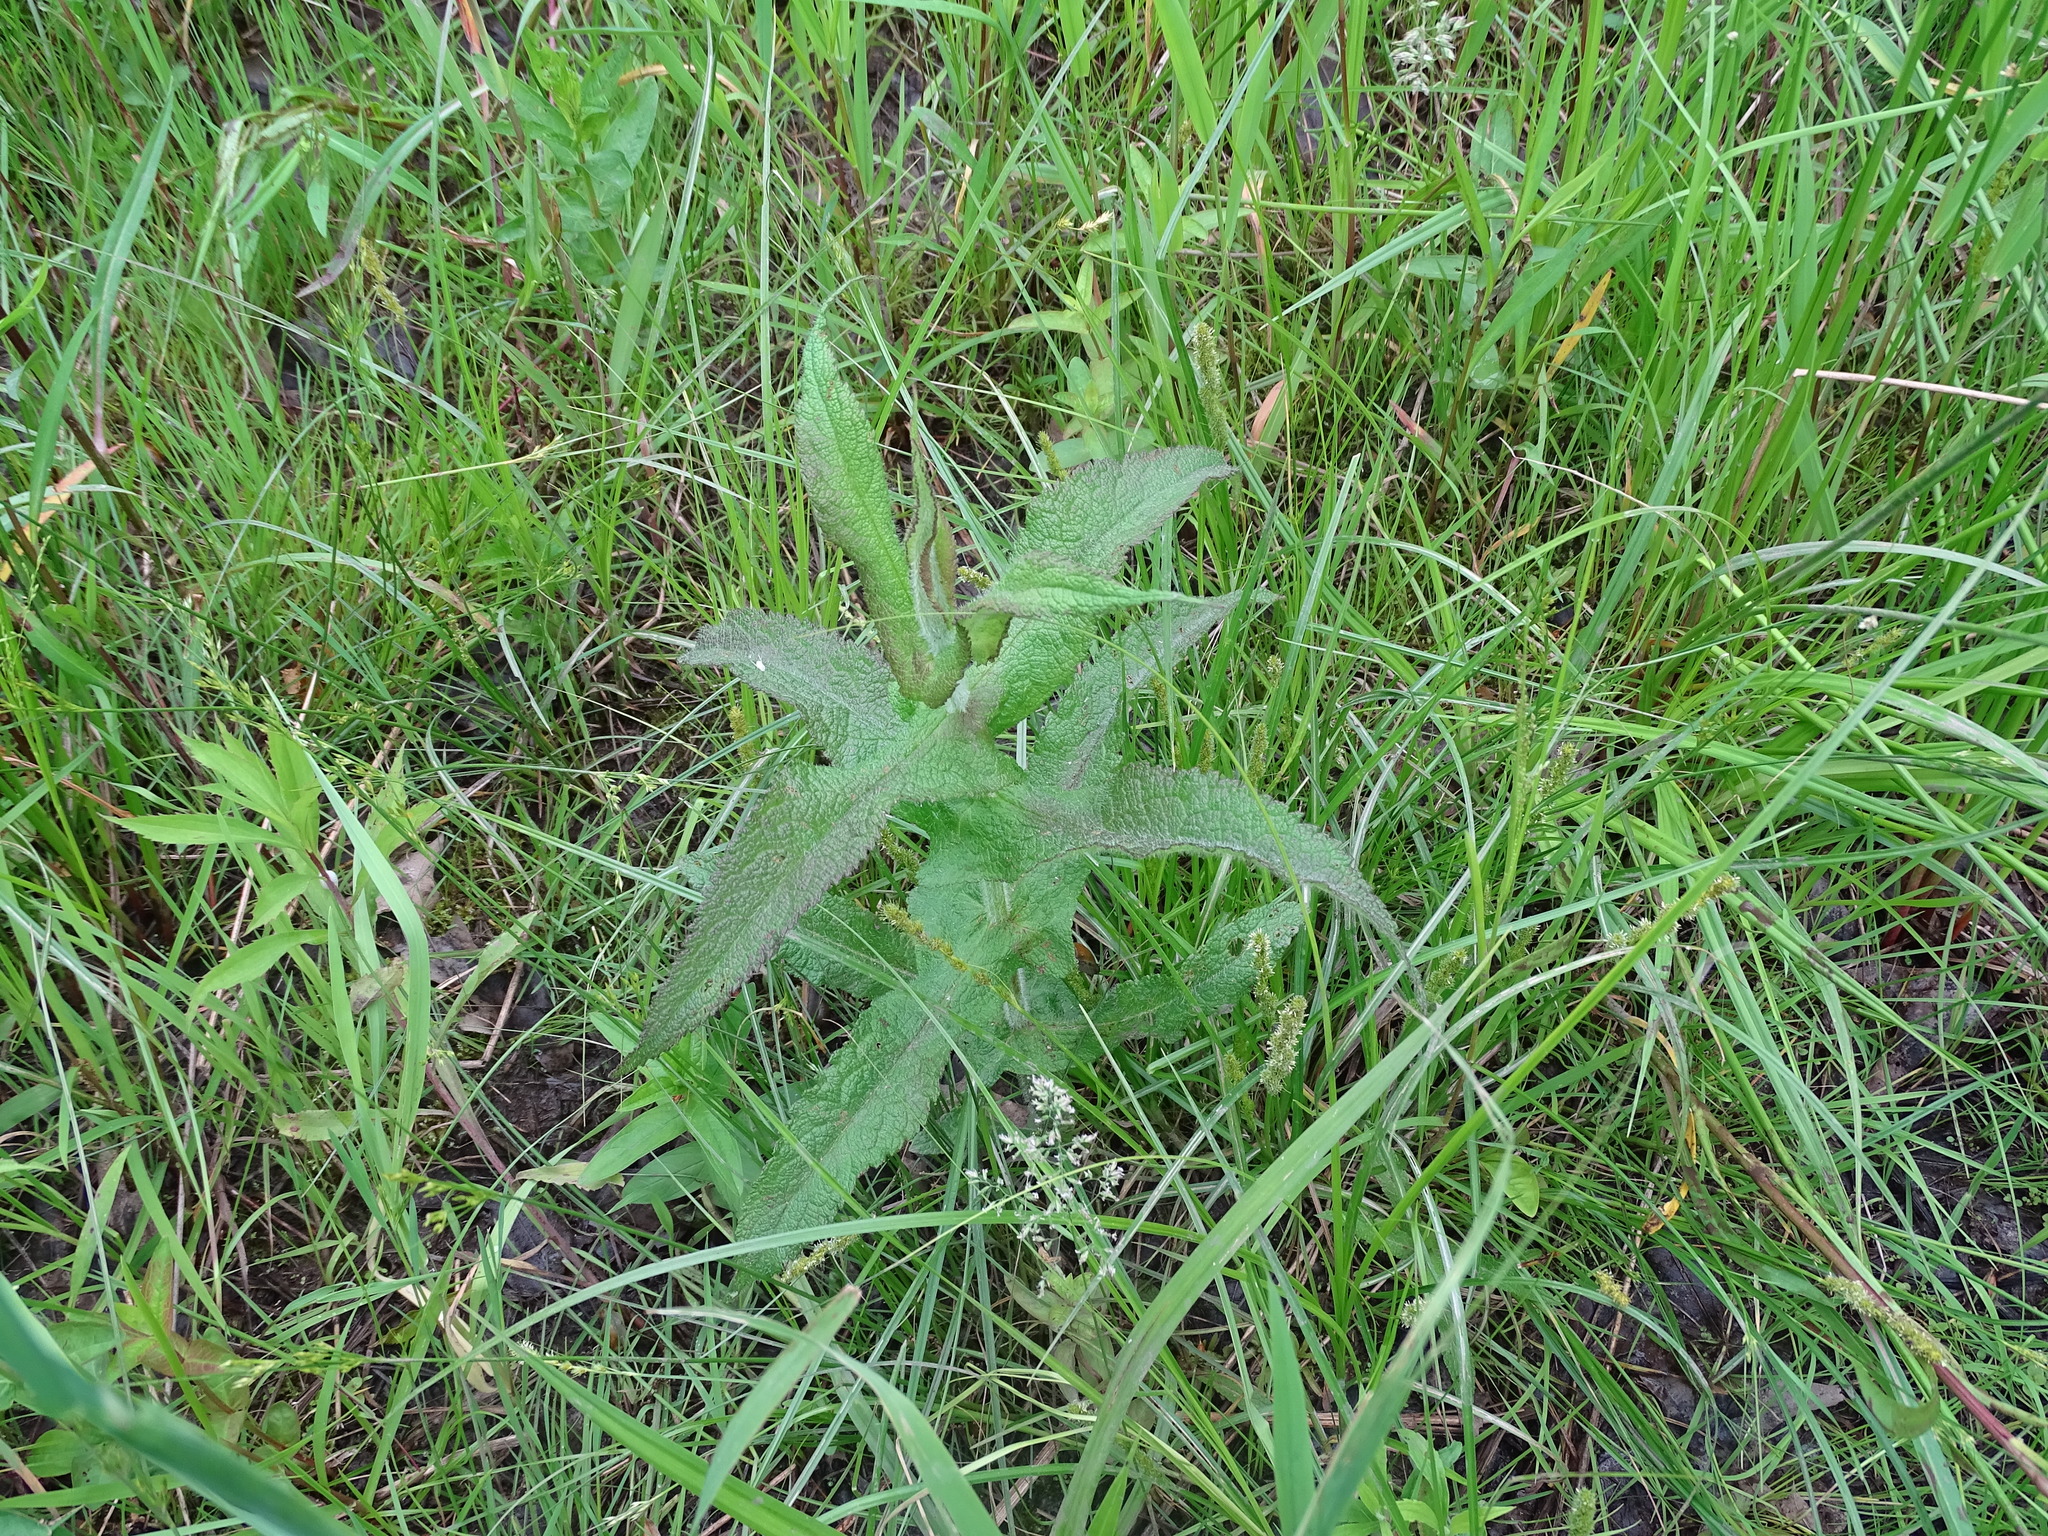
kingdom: Plantae
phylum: Tracheophyta
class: Magnoliopsida
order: Asterales
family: Asteraceae
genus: Eupatorium
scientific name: Eupatorium perfoliatum
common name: Boneset
